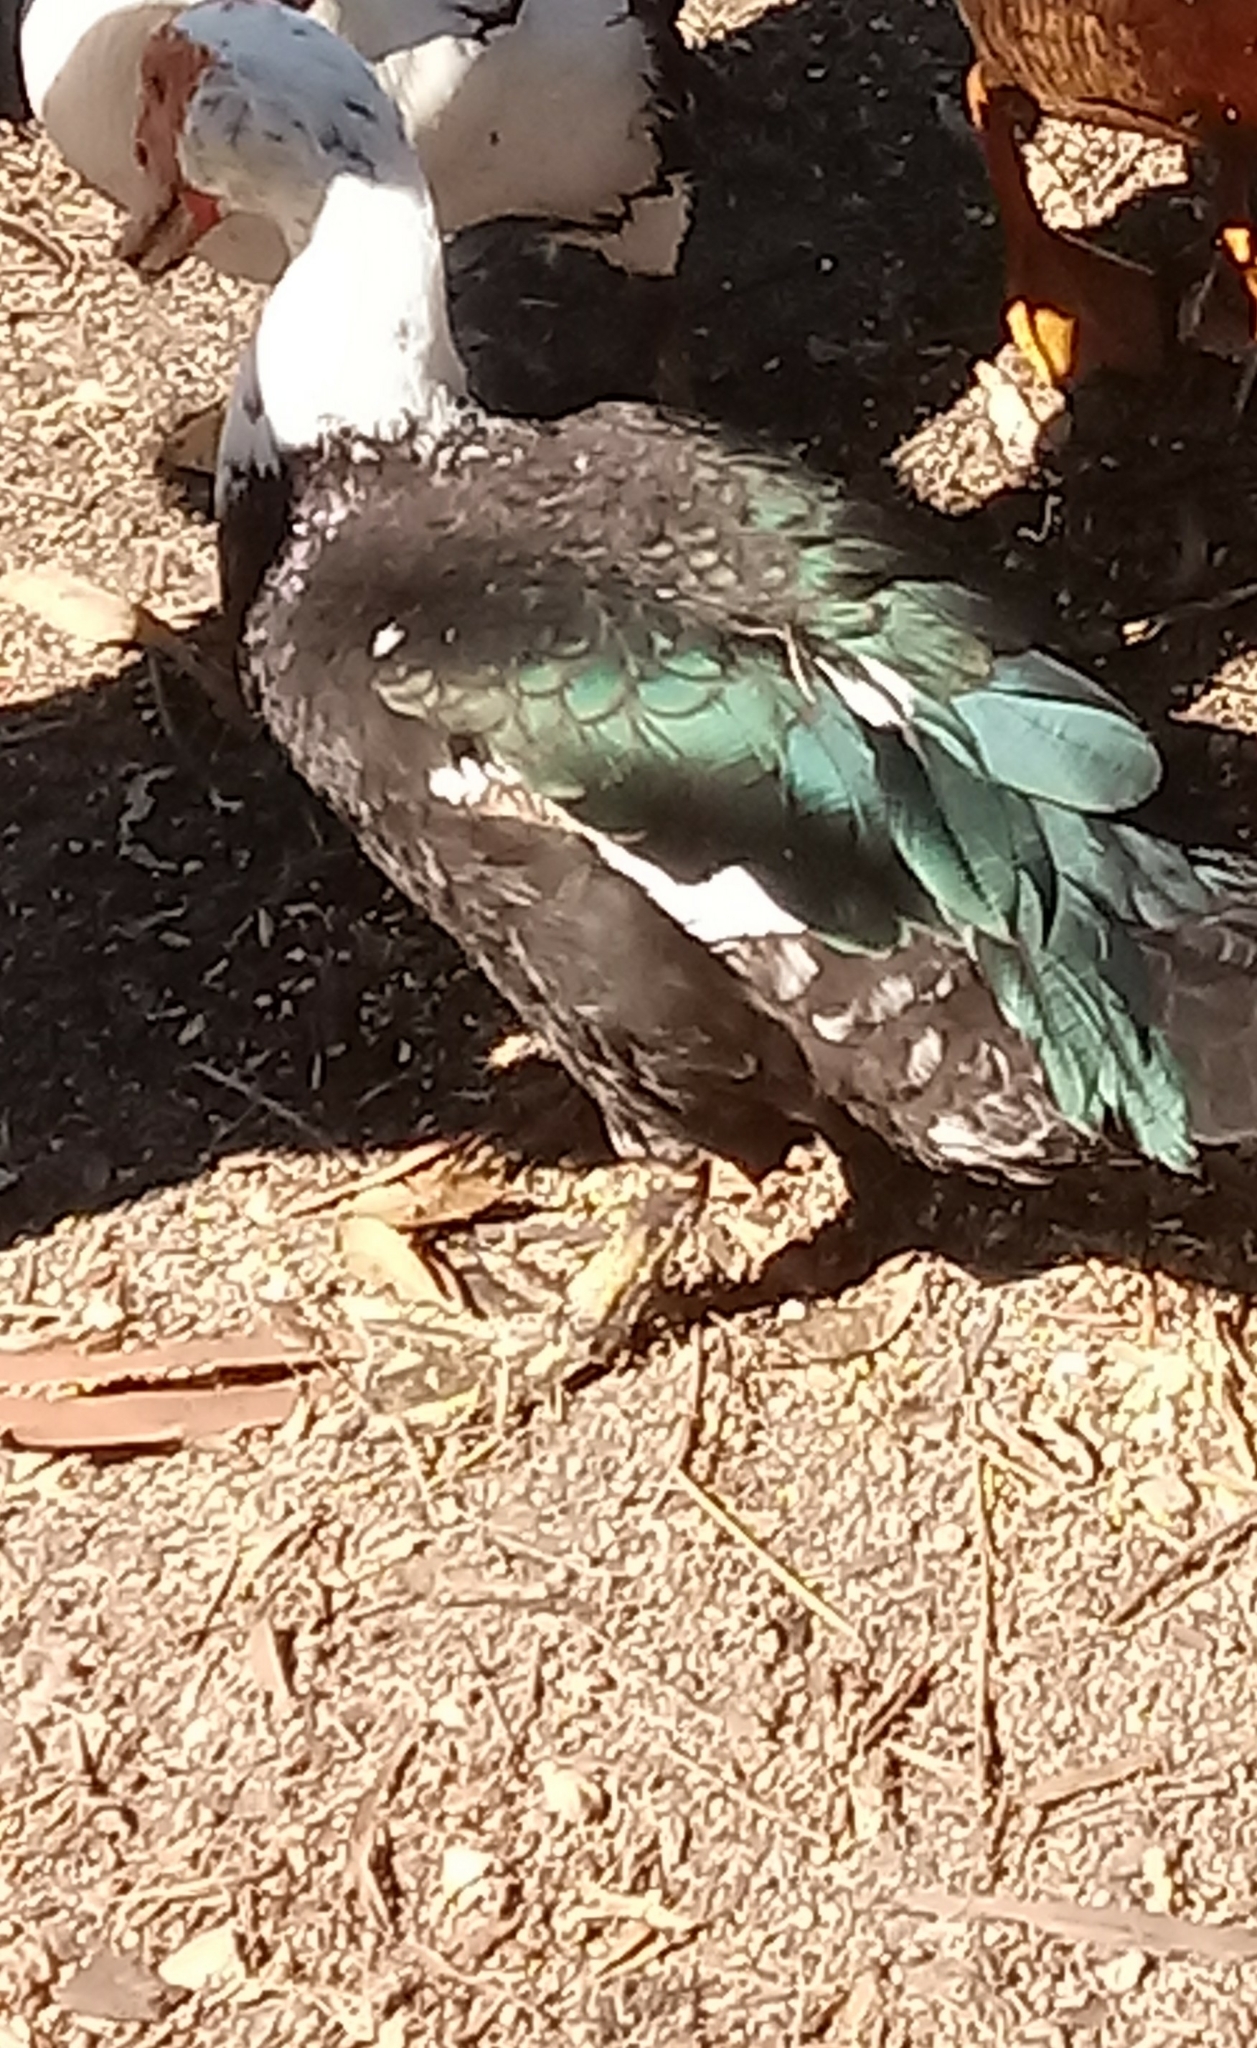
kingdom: Animalia
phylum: Chordata
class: Aves
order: Anseriformes
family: Anatidae
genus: Cairina
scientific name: Cairina moschata
